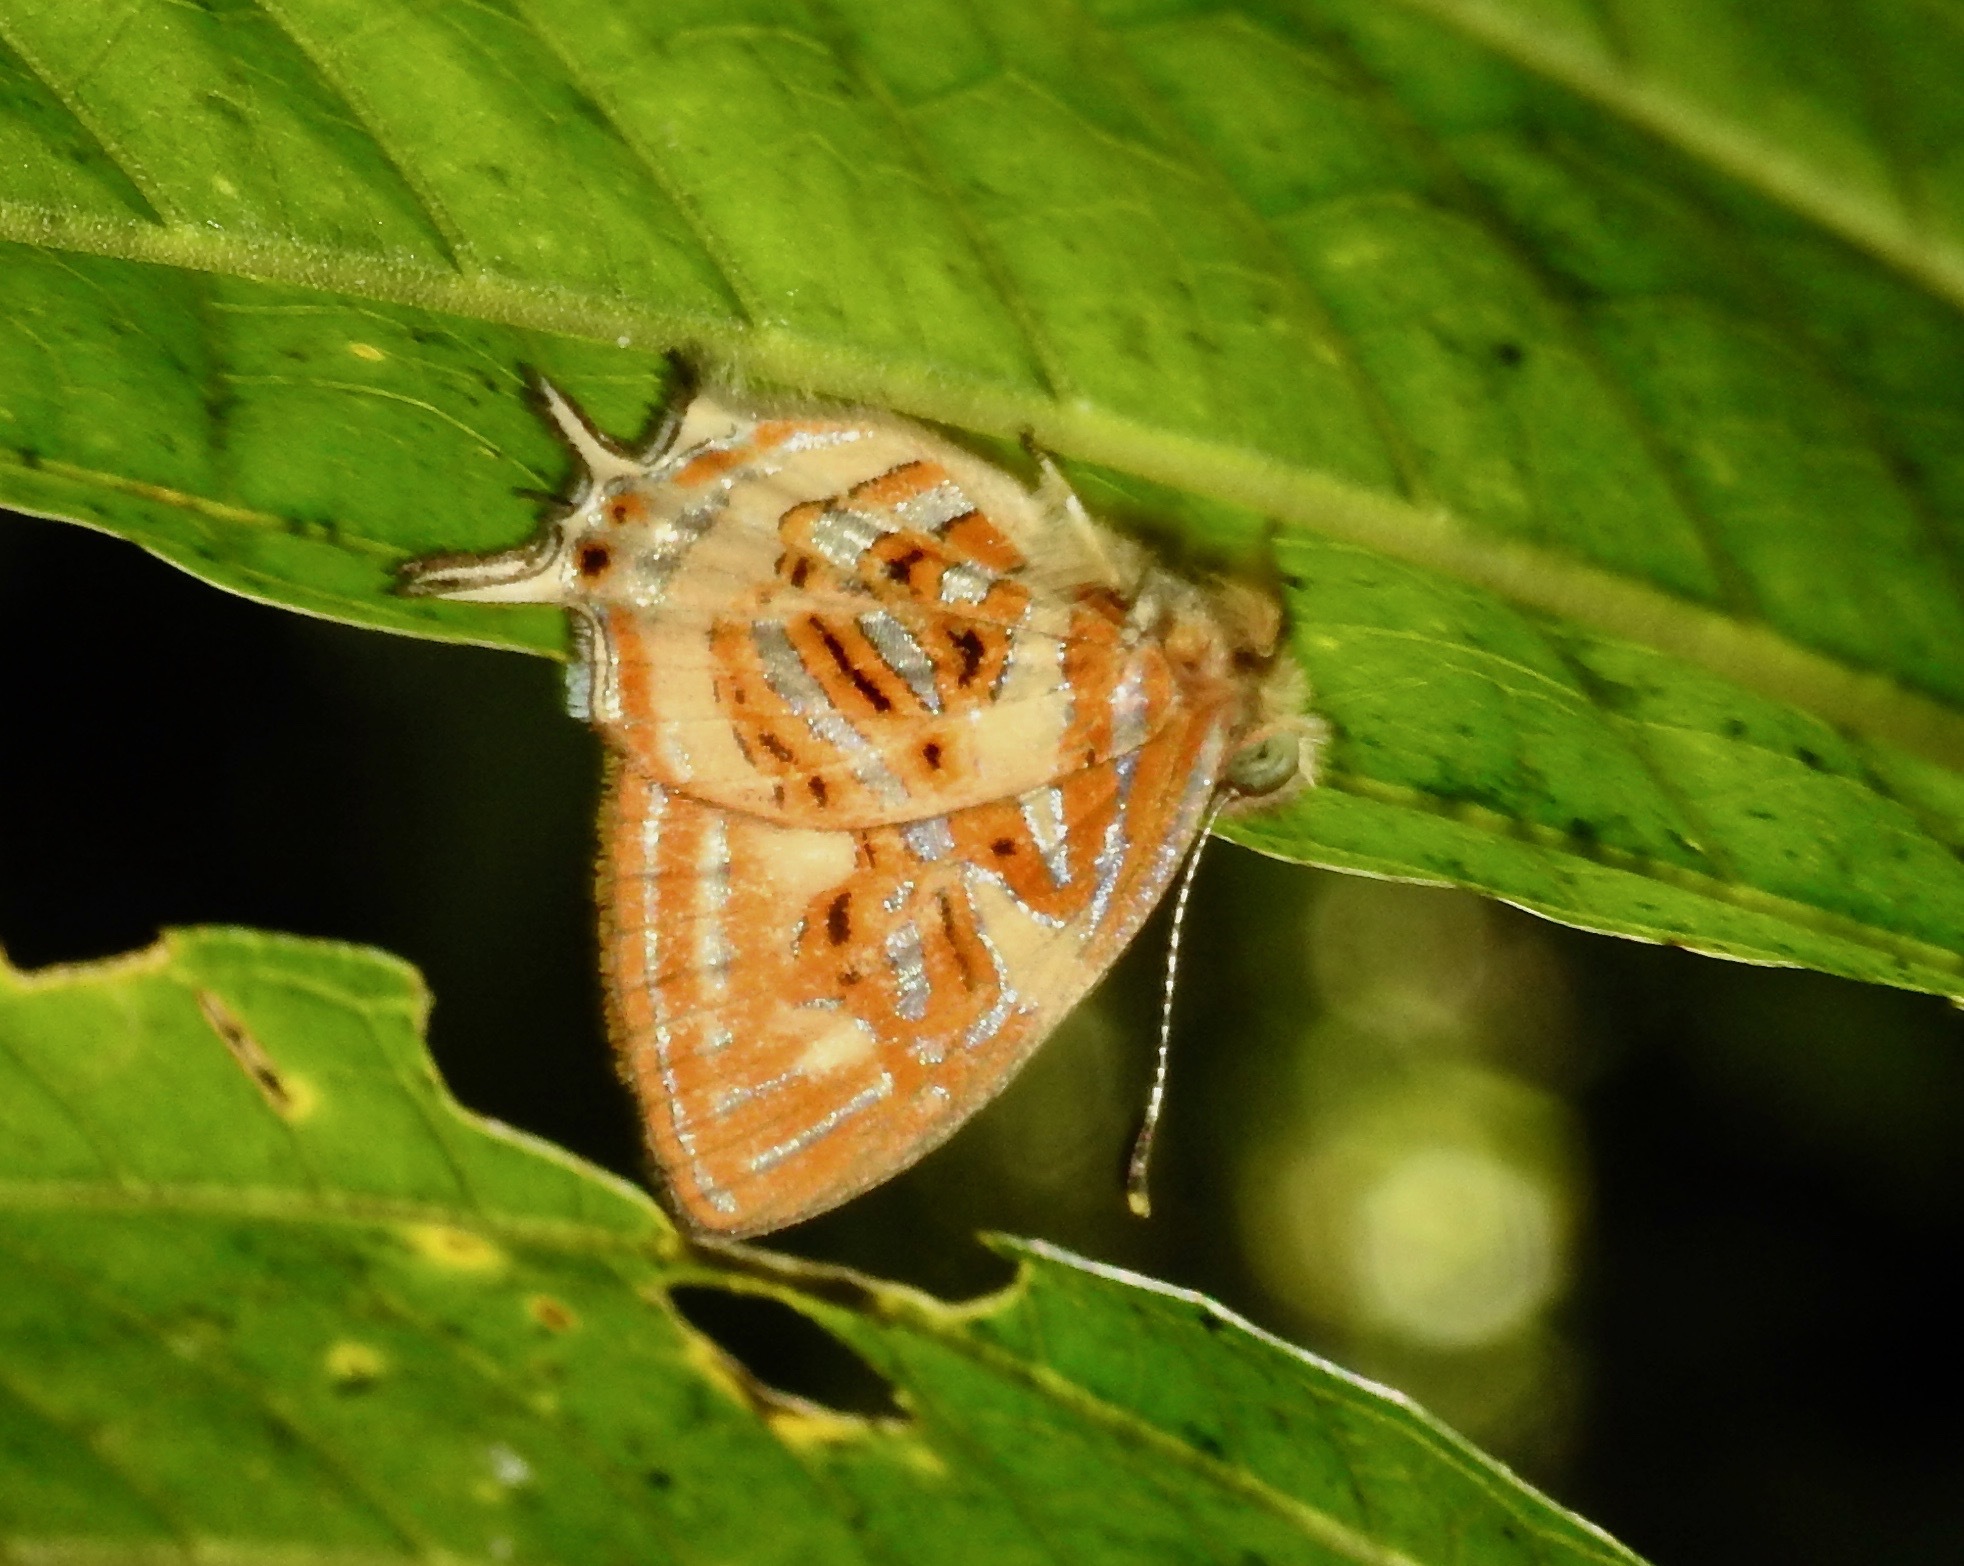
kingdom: Animalia
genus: Charis
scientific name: Charis
